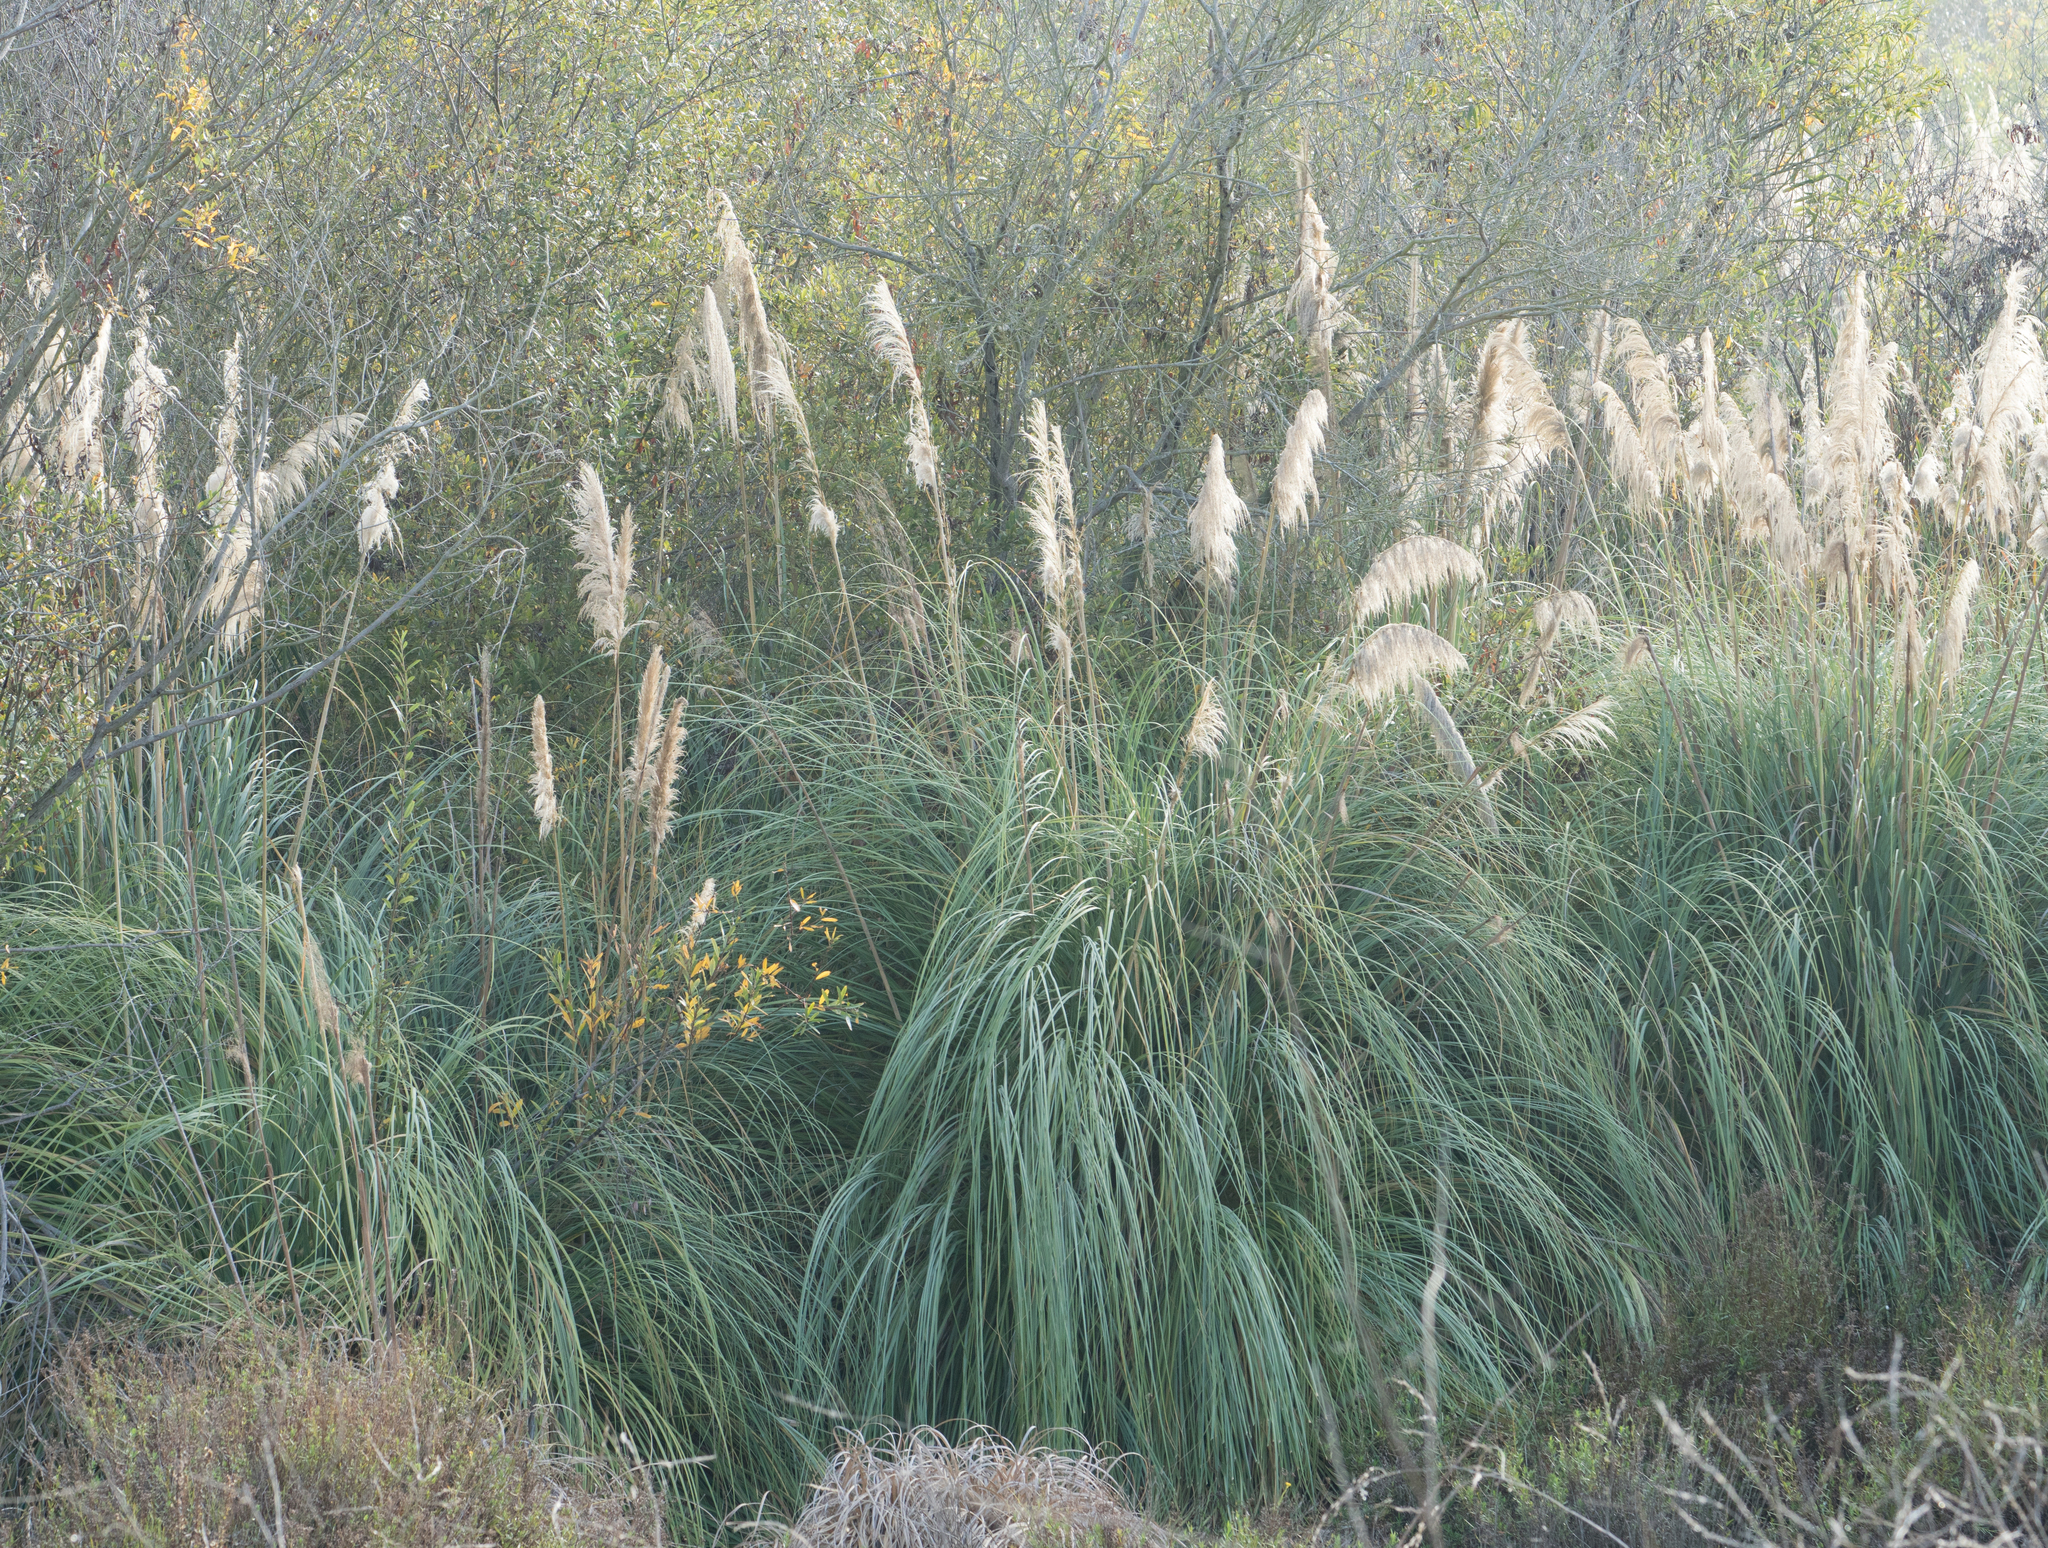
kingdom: Plantae
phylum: Tracheophyta
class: Liliopsida
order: Poales
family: Poaceae
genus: Cortaderia
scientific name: Cortaderia selloana
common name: Uruguayan pampas grass
